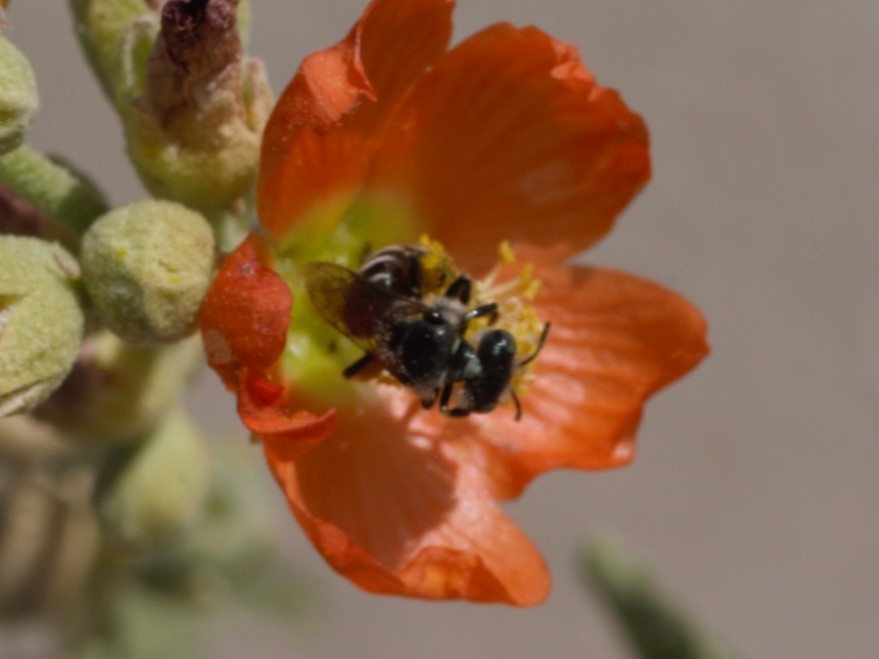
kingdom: Animalia
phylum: Arthropoda
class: Insecta
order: Hymenoptera
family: Andrenidae
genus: Calliopsis
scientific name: Calliopsis
